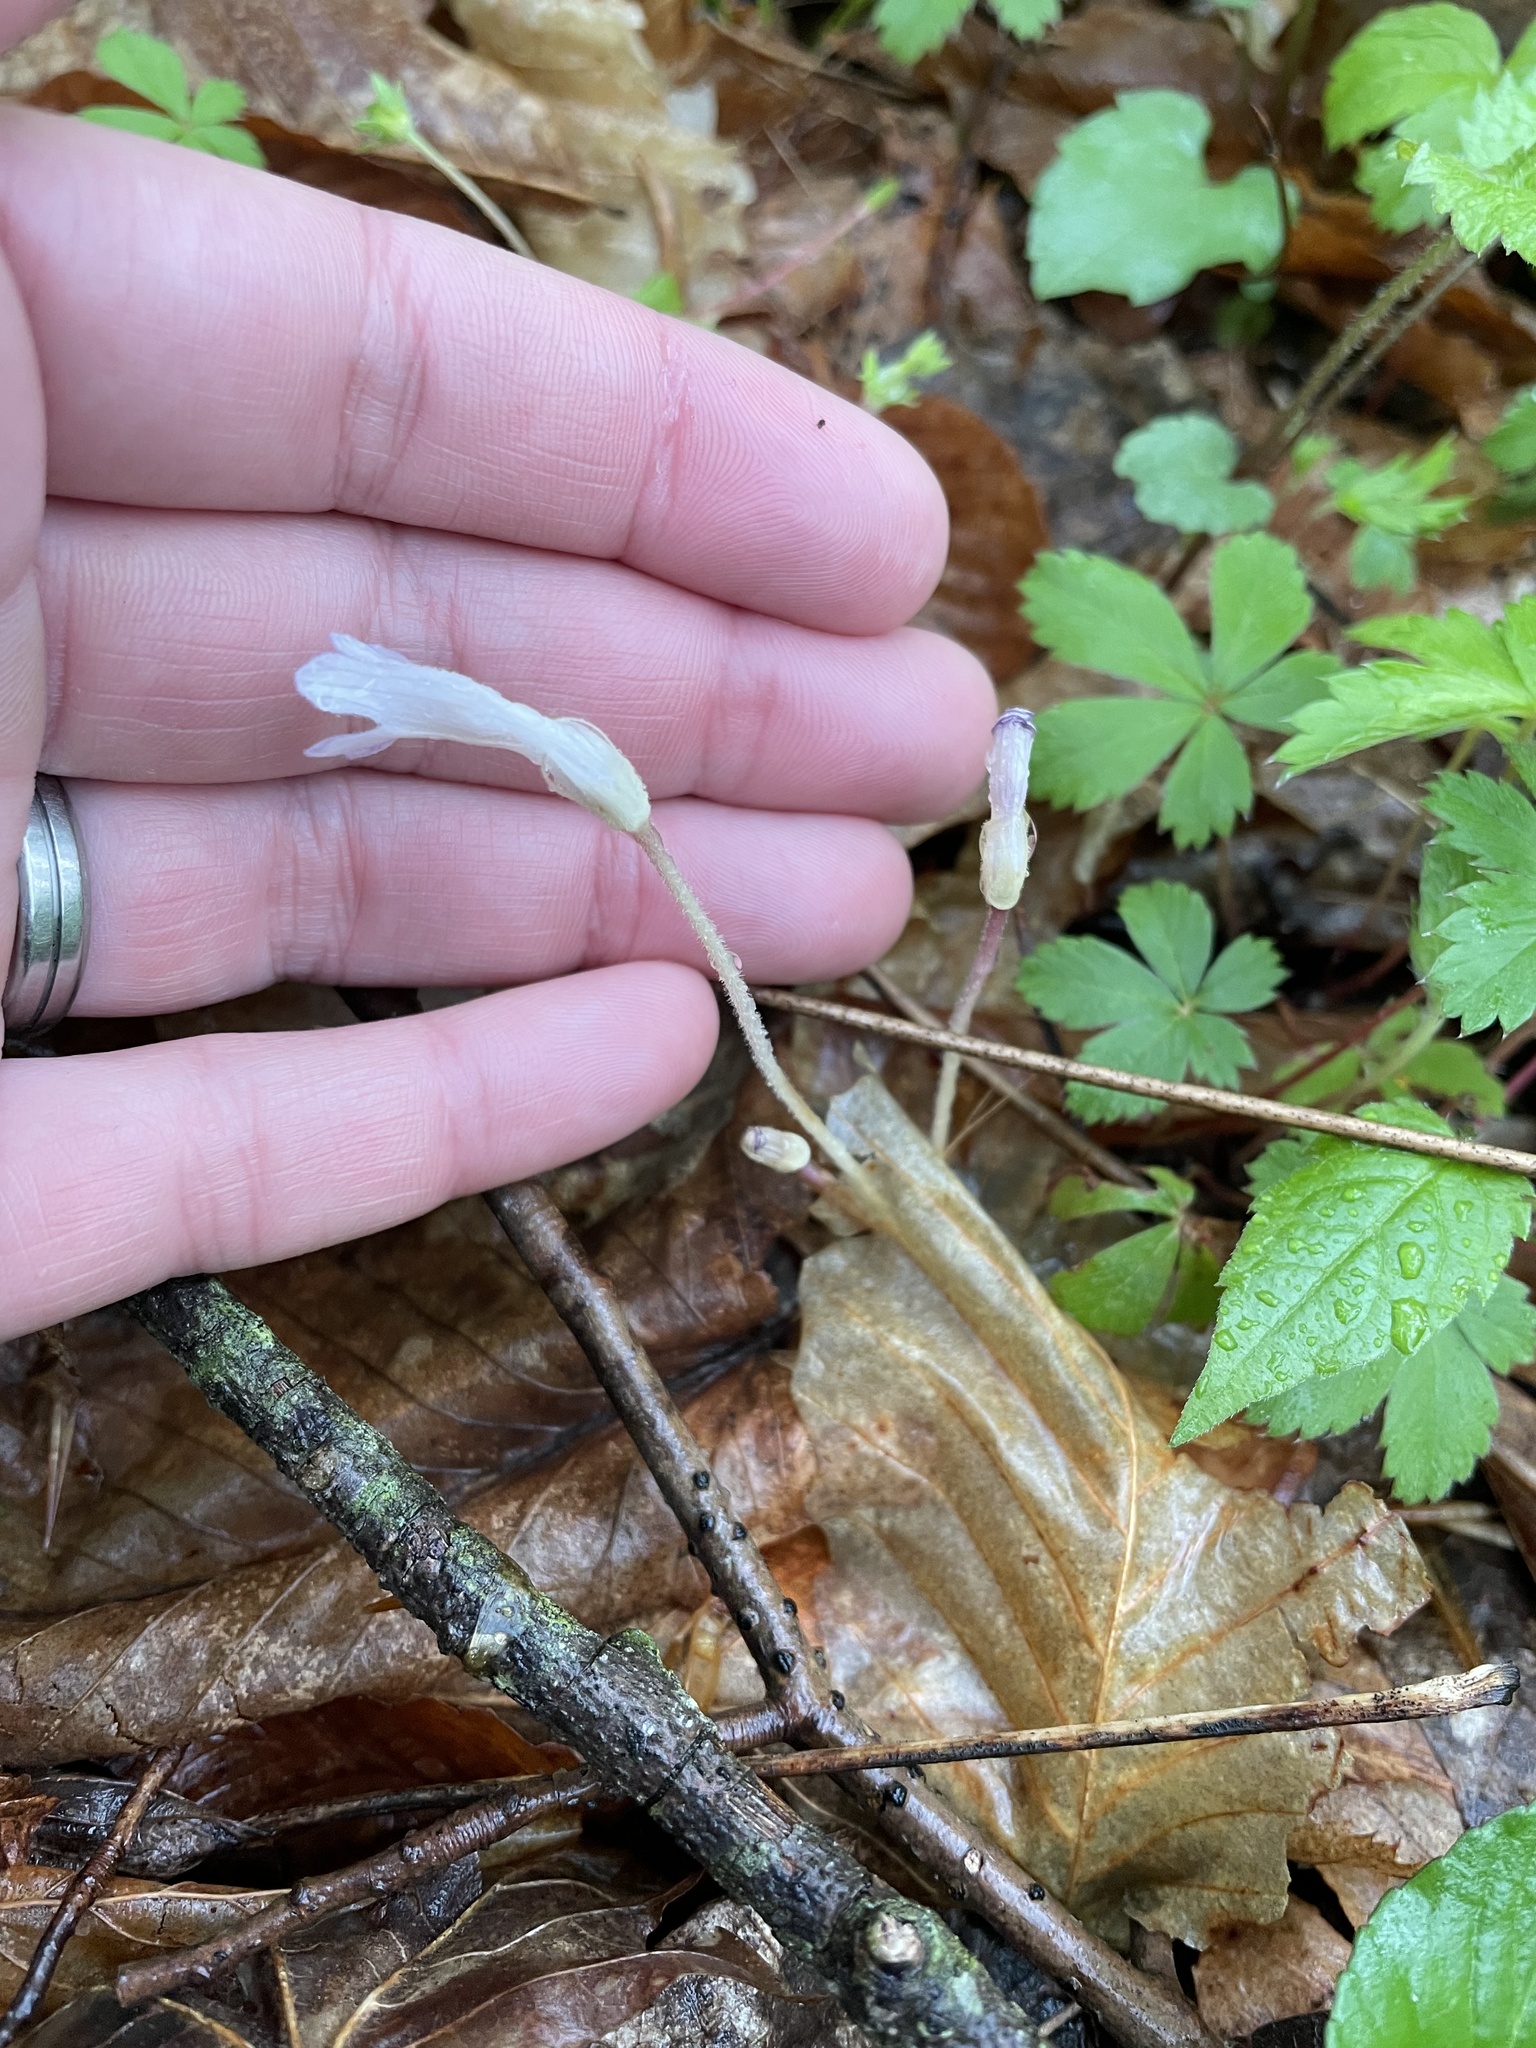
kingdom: Plantae
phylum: Tracheophyta
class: Magnoliopsida
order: Lamiales
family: Orobanchaceae
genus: Aphyllon
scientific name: Aphyllon uniflorum
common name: One-flowered broomrape
